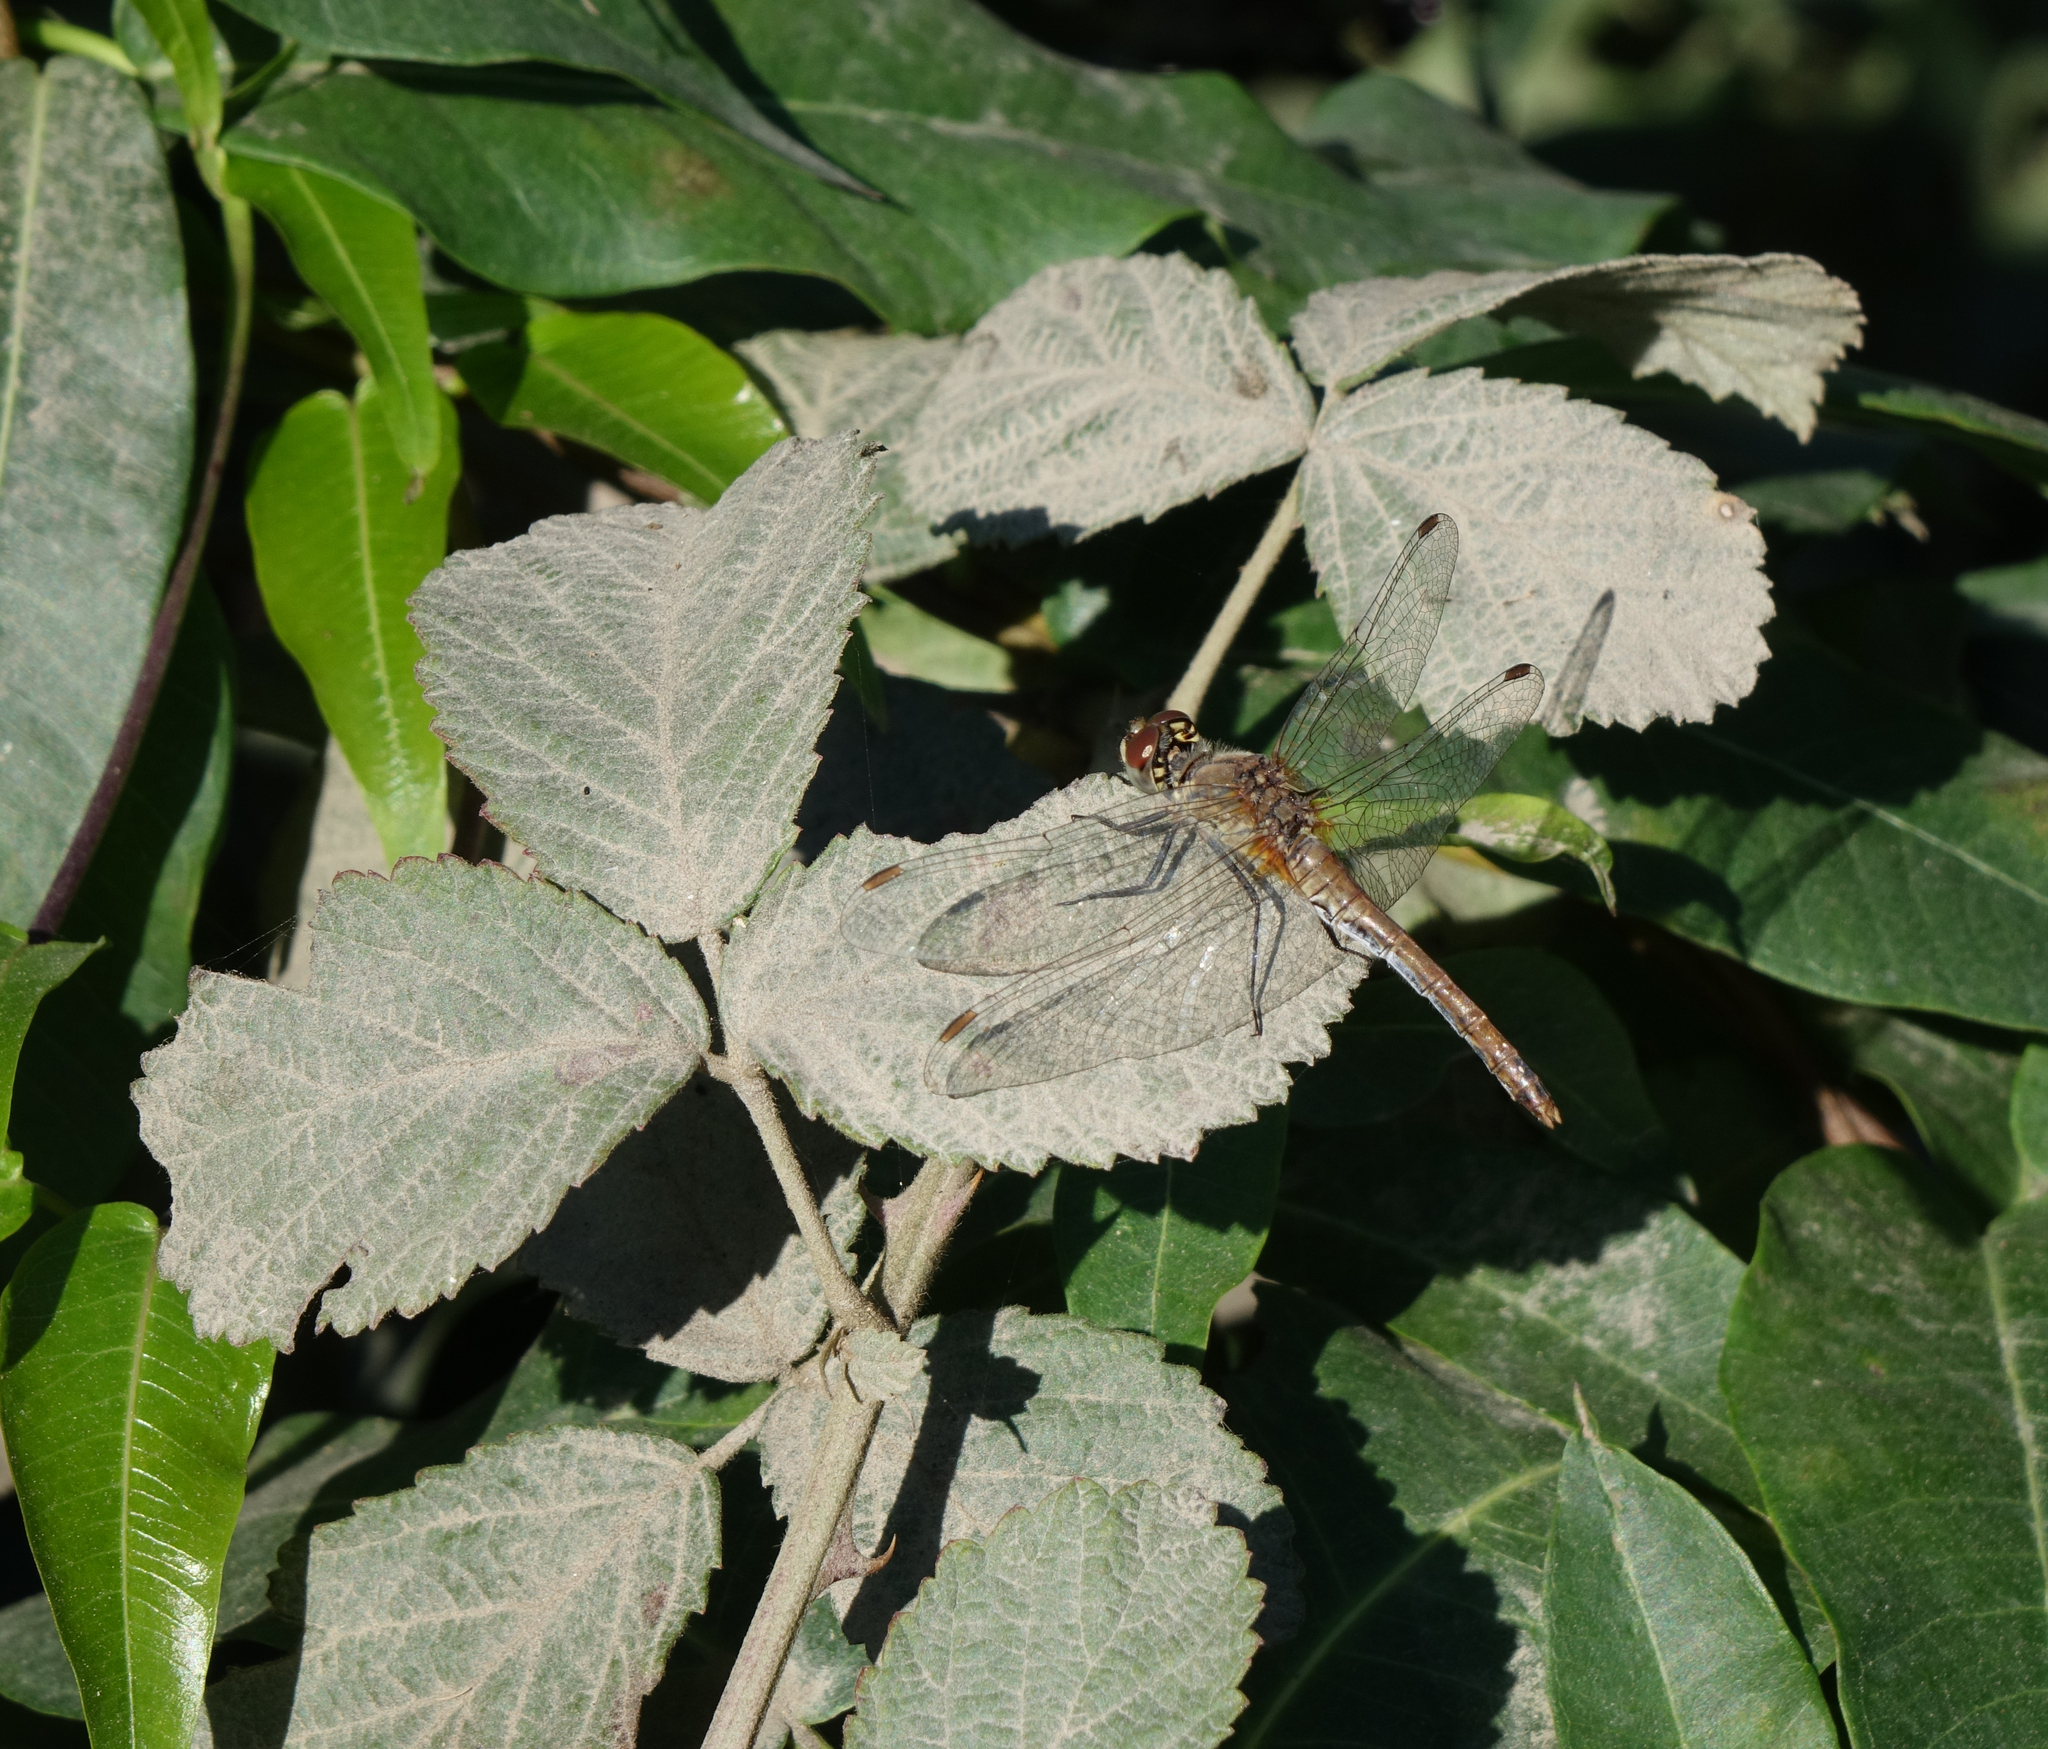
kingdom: Animalia
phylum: Arthropoda
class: Insecta
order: Odonata
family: Libellulidae
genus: Sympetrum
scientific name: Sympetrum sanguineum
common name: Ruddy darter
